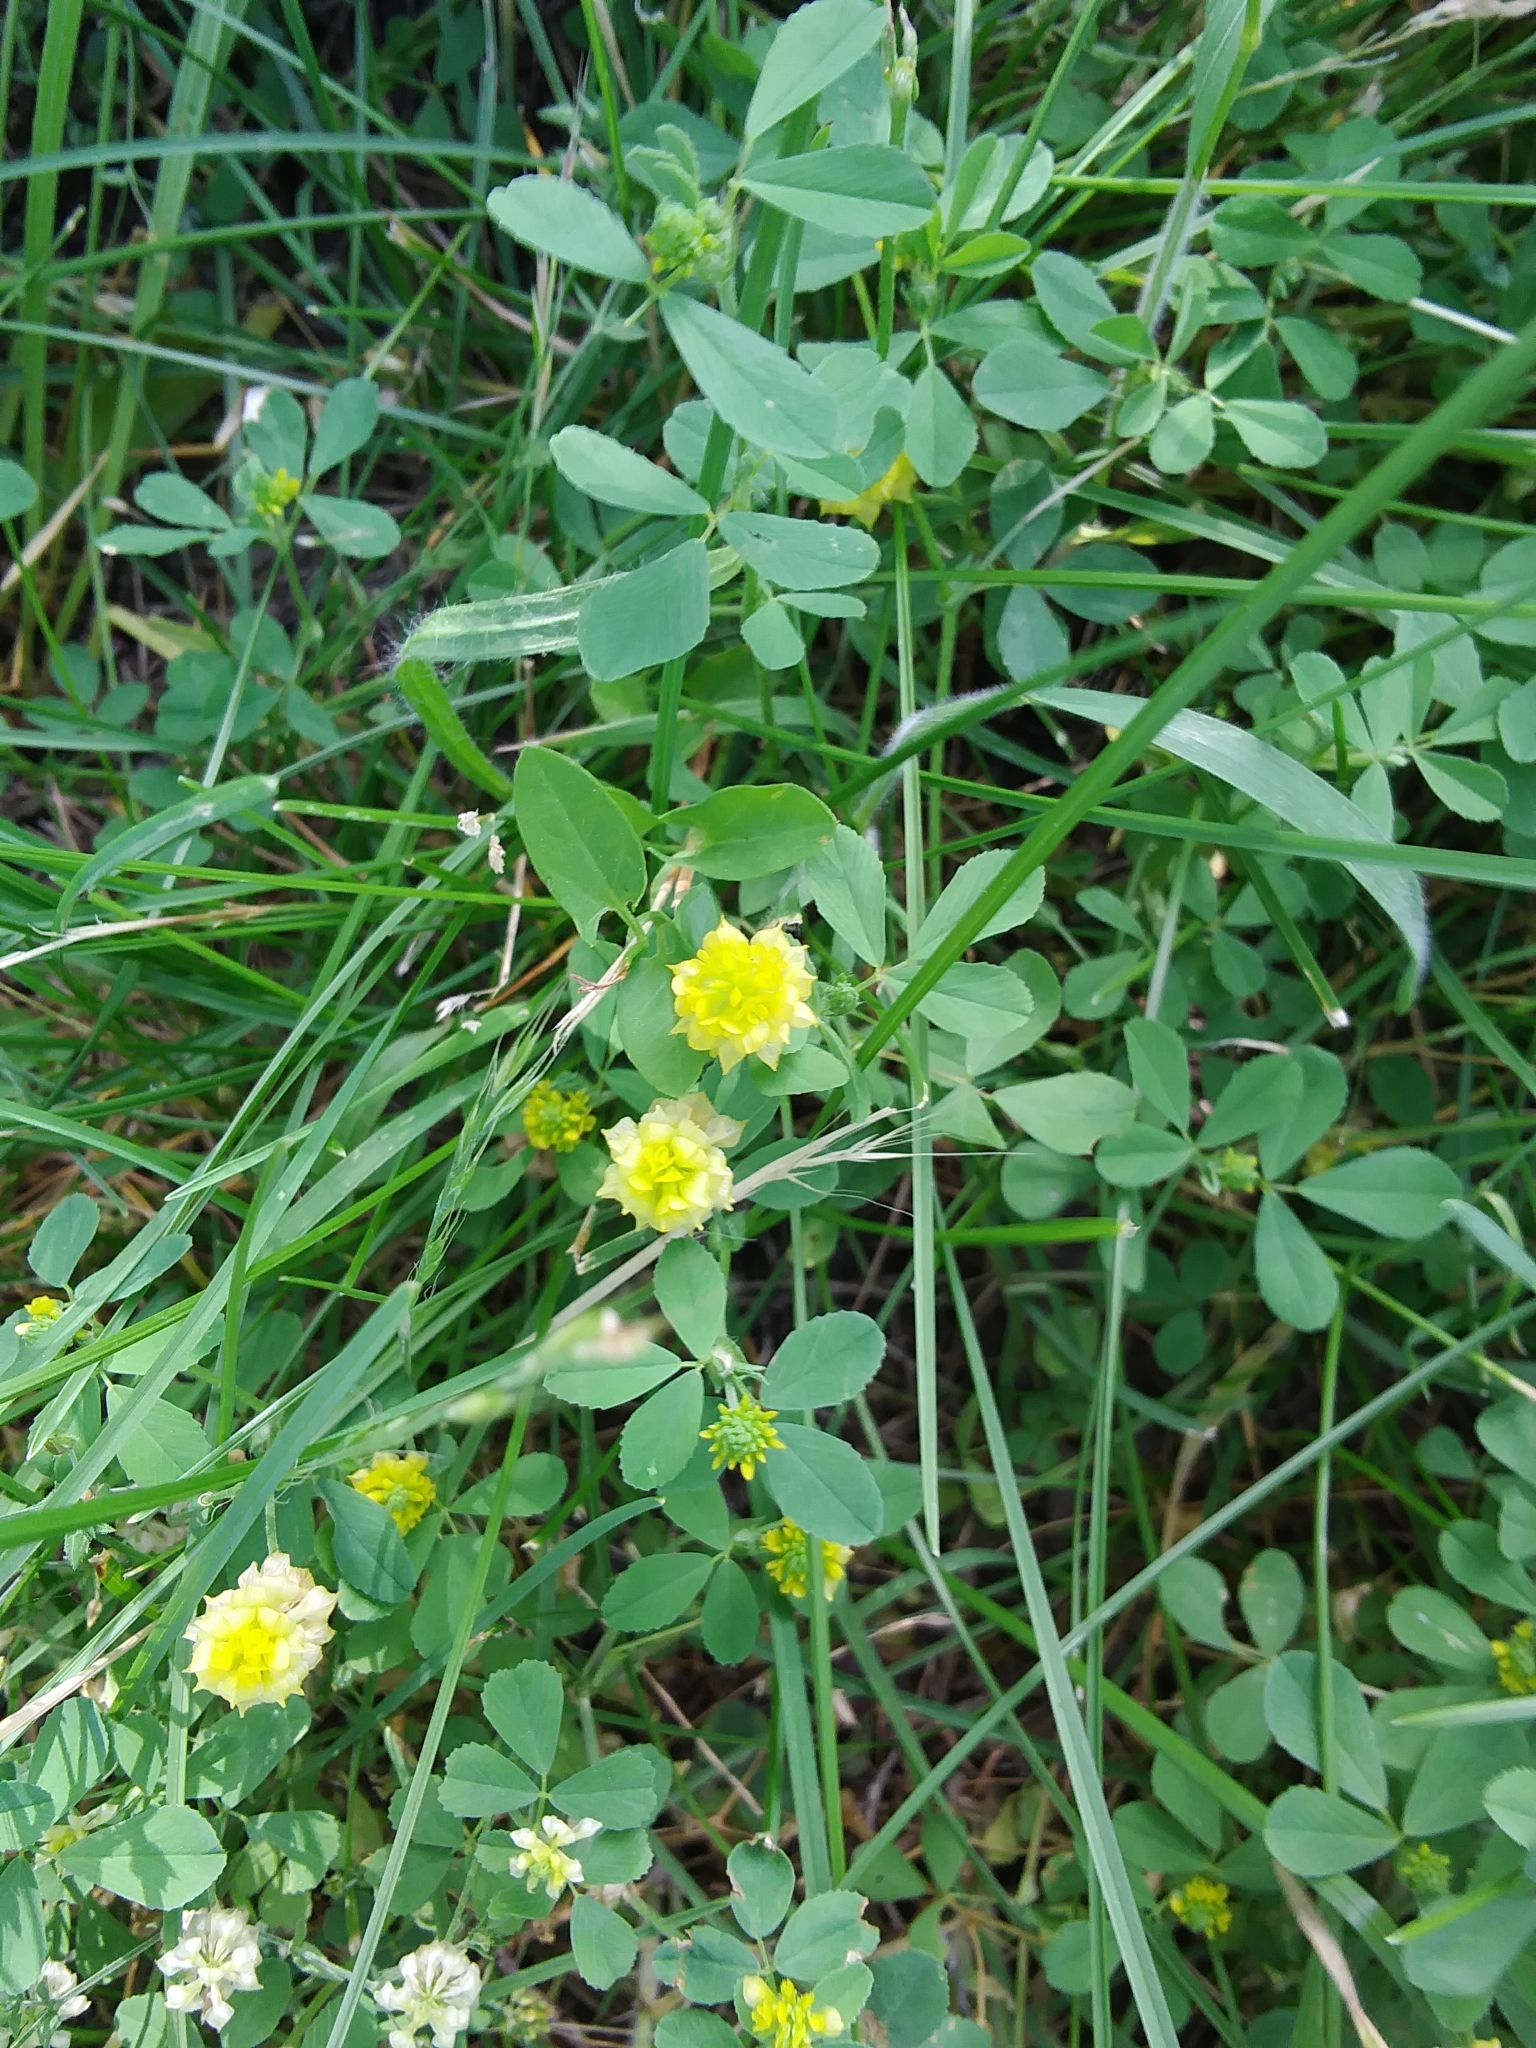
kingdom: Plantae
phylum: Tracheophyta
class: Magnoliopsida
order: Fabales
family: Fabaceae
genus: Medicago
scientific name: Medicago lupulina
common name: Black medick
